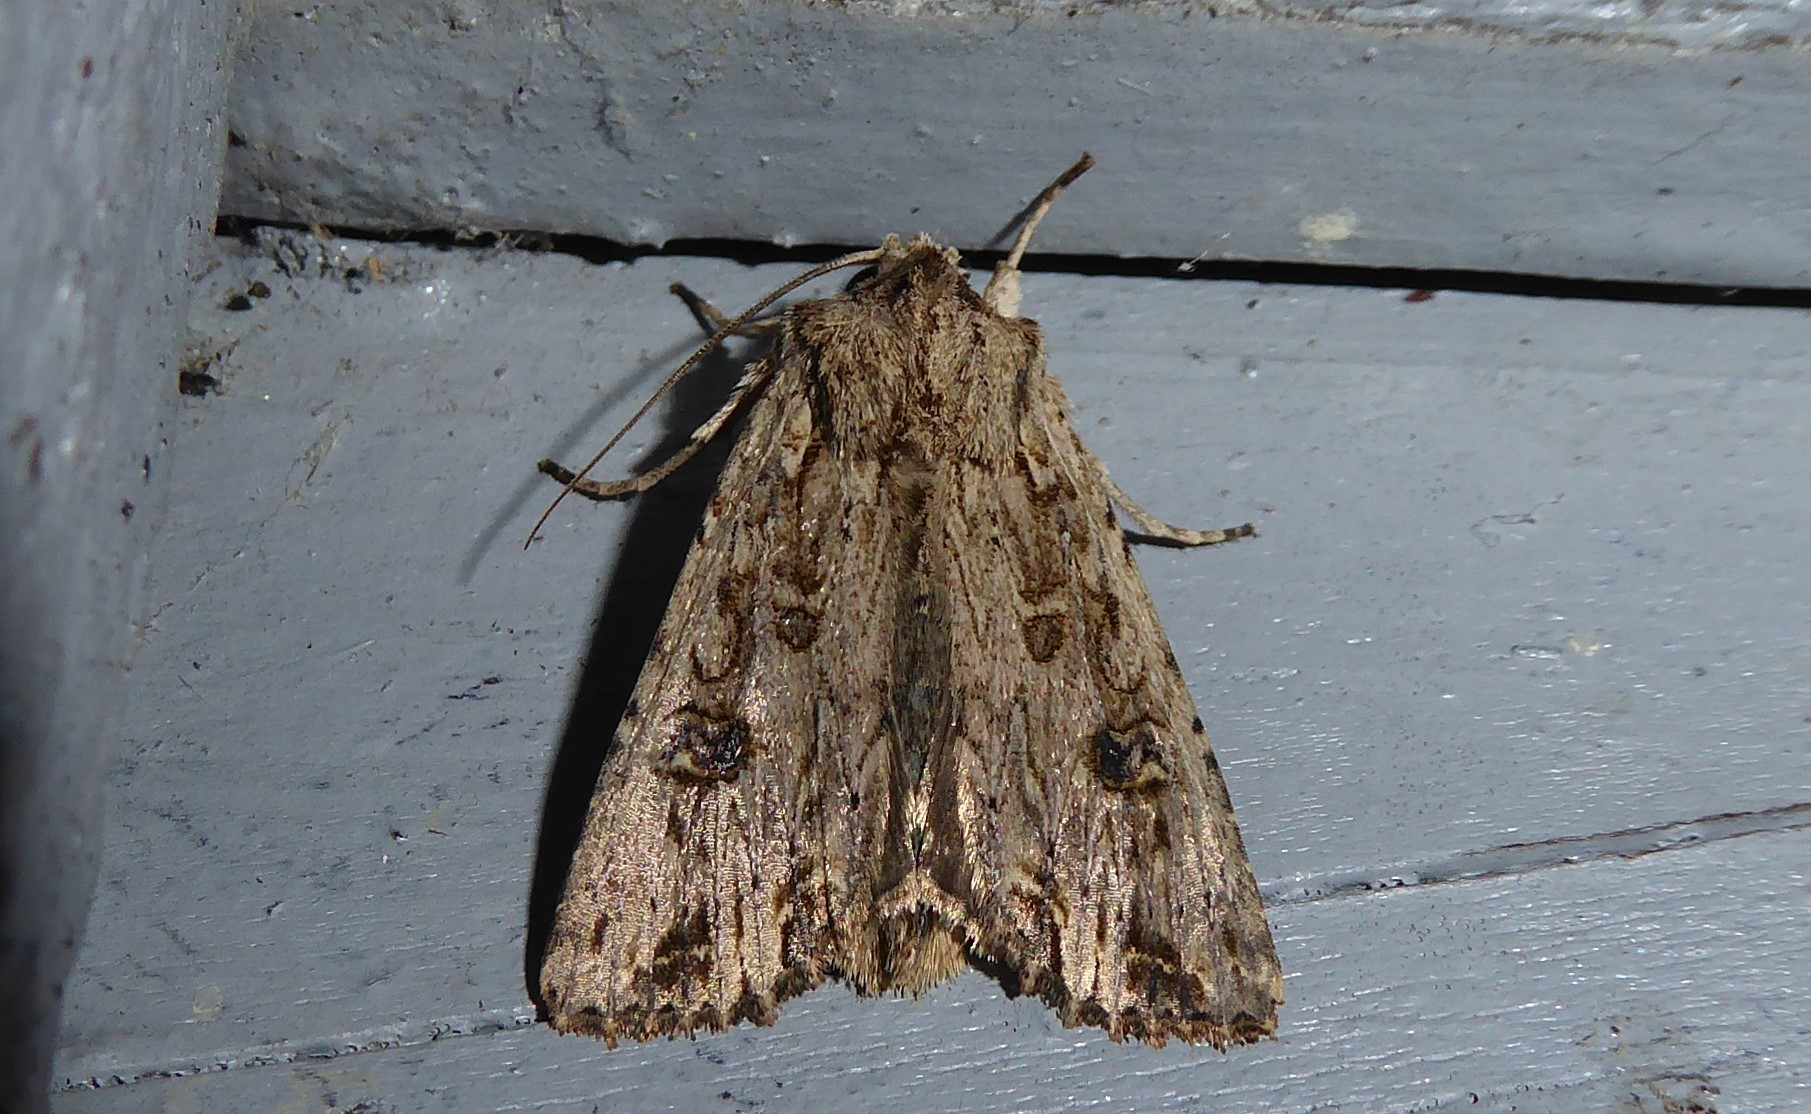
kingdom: Animalia
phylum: Arthropoda
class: Insecta
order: Lepidoptera
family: Noctuidae
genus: Ichneutica
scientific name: Ichneutica lignana
